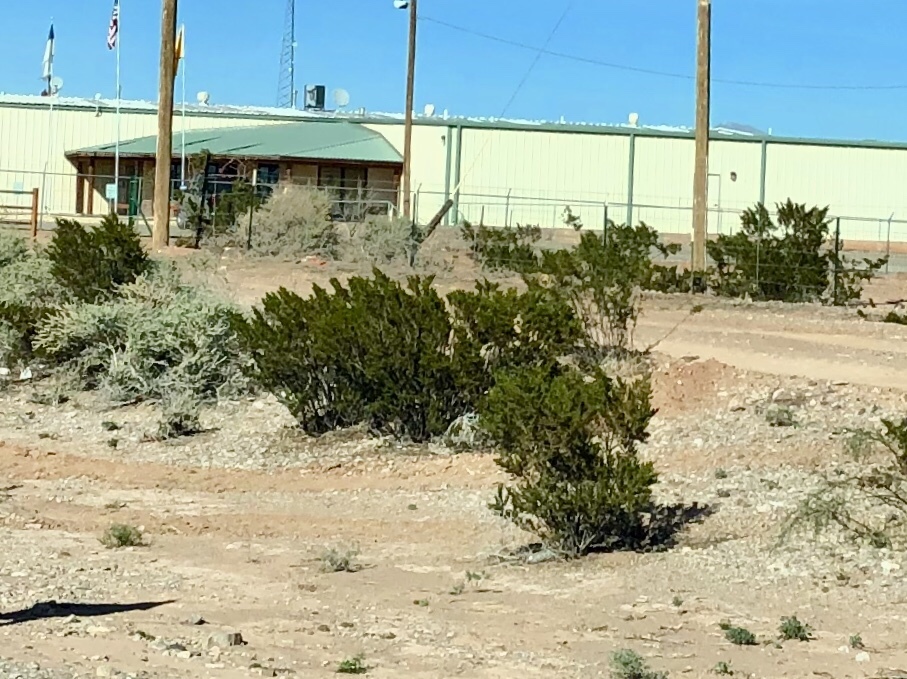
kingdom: Plantae
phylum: Tracheophyta
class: Magnoliopsida
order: Zygophyllales
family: Zygophyllaceae
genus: Larrea
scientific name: Larrea tridentata
